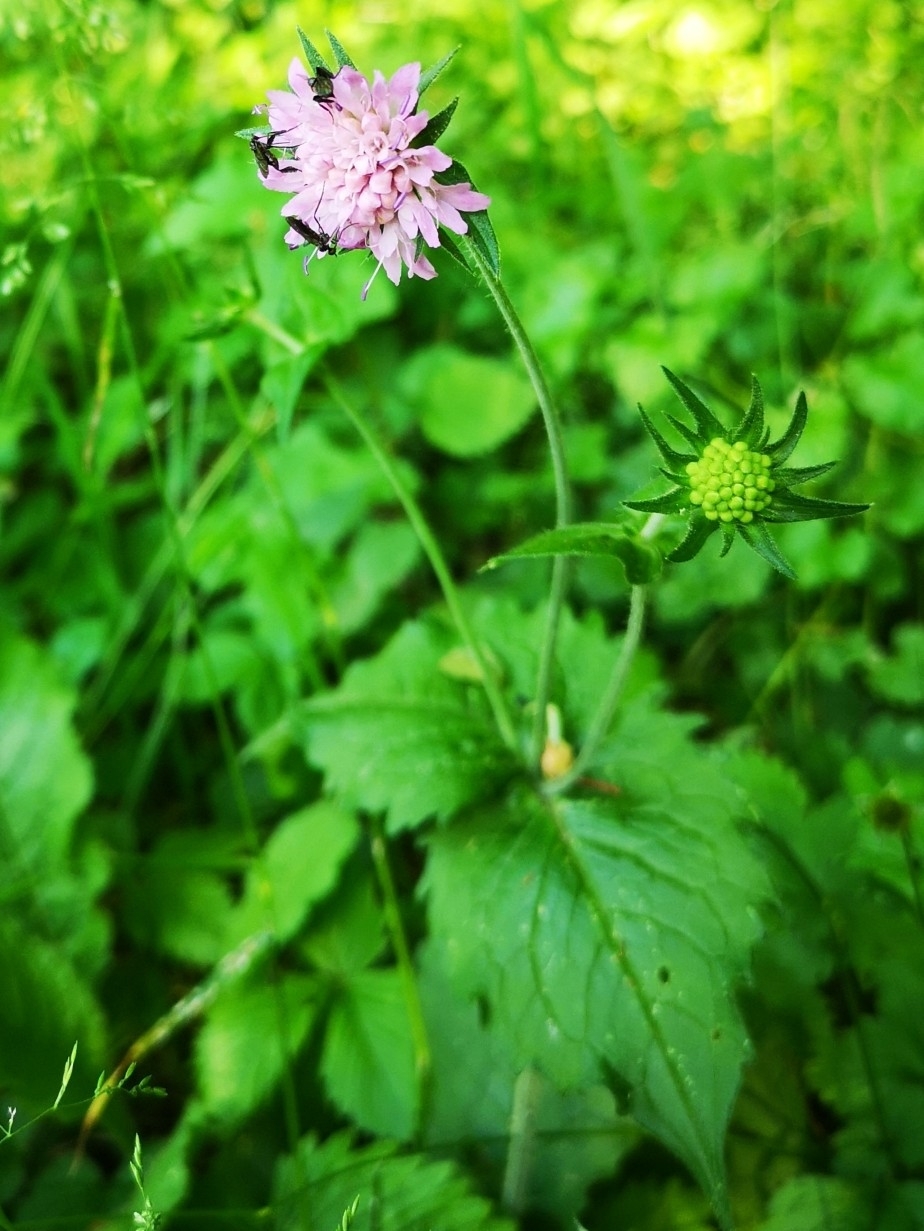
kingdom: Plantae
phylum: Tracheophyta
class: Magnoliopsida
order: Dipsacales
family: Caprifoliaceae
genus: Knautia
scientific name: Knautia drymeia
